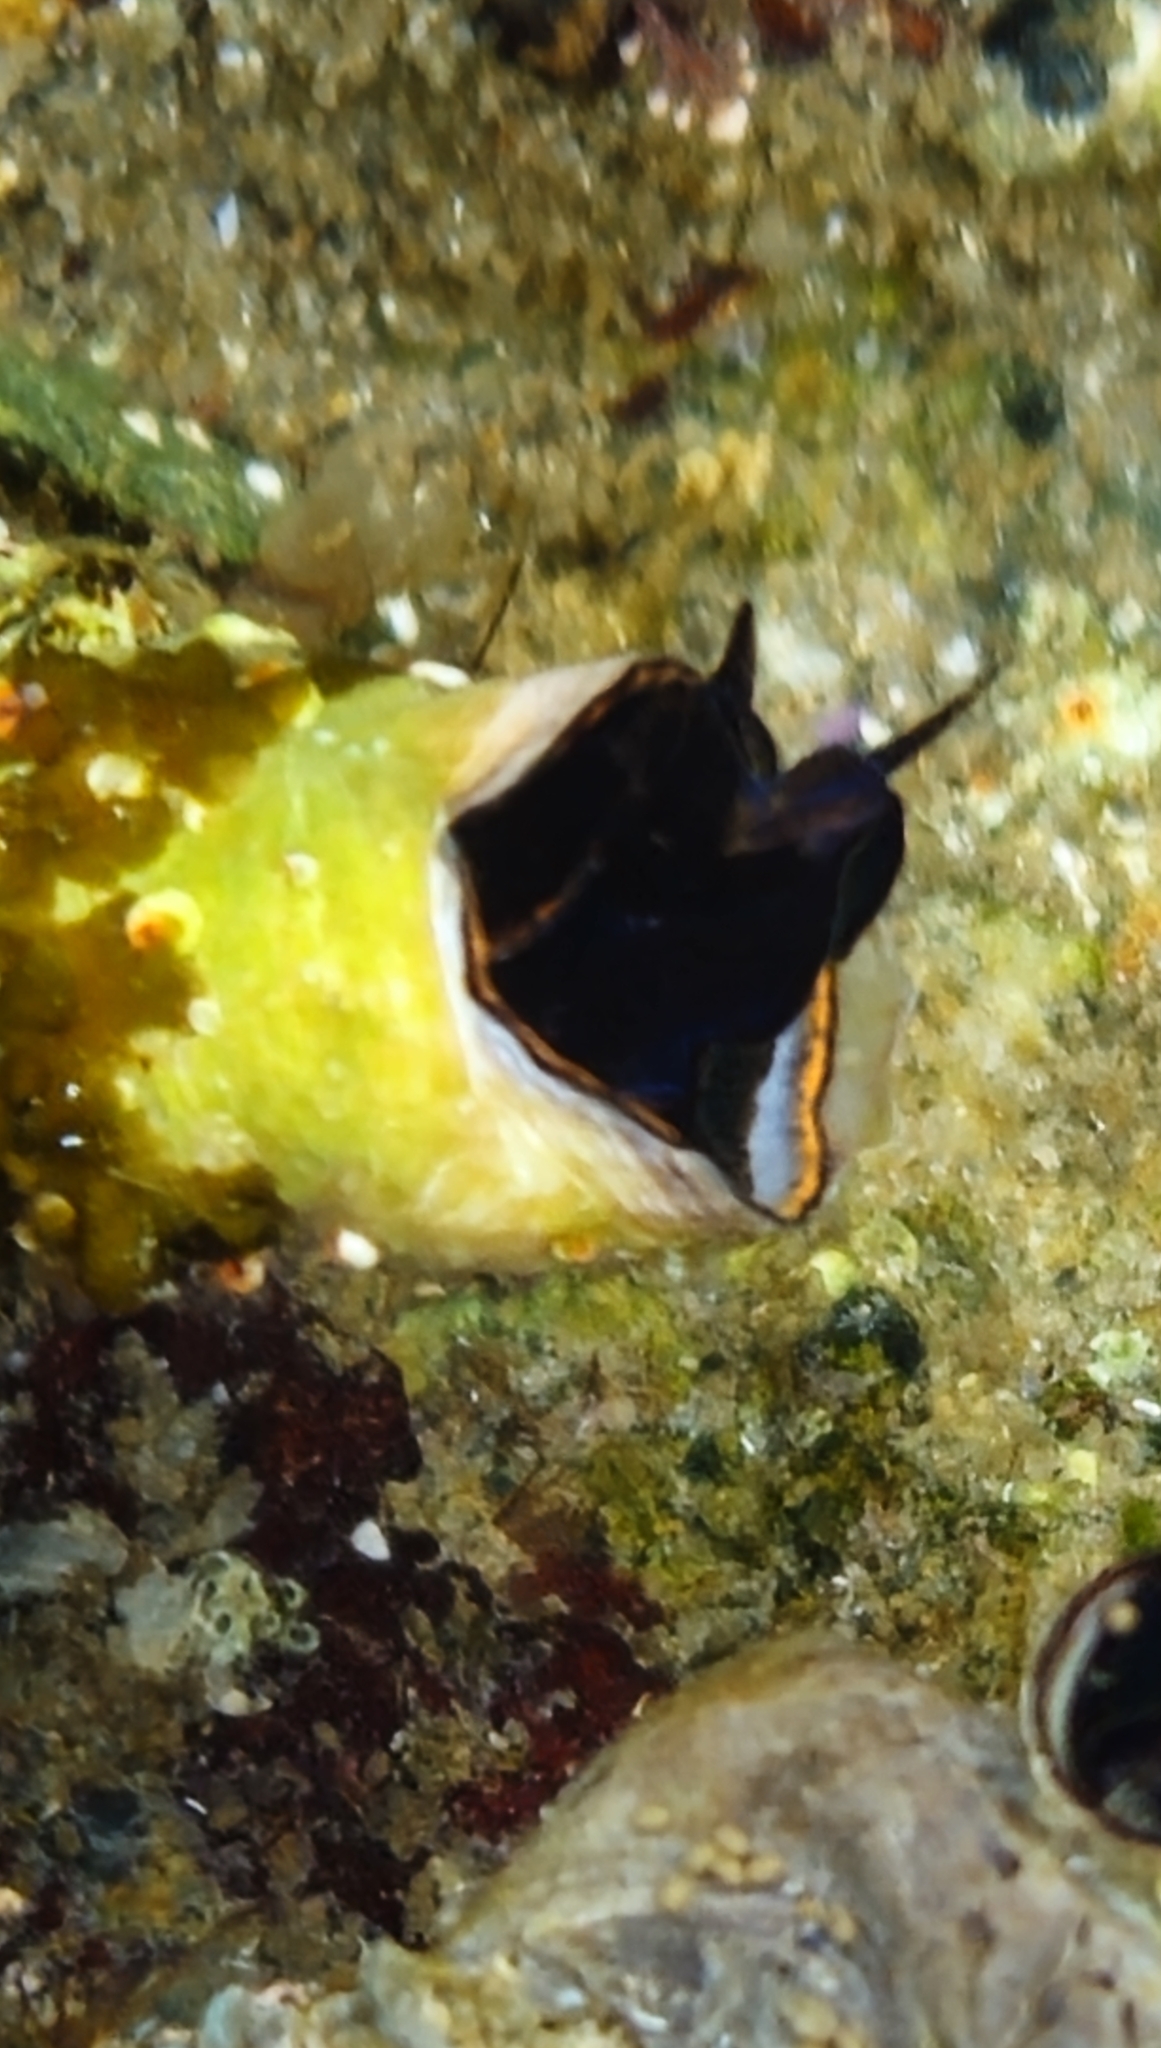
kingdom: Animalia
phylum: Mollusca
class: Gastropoda
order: Littorinimorpha
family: Vermetidae
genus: Thylacodes
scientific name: Thylacodes squamigerus
